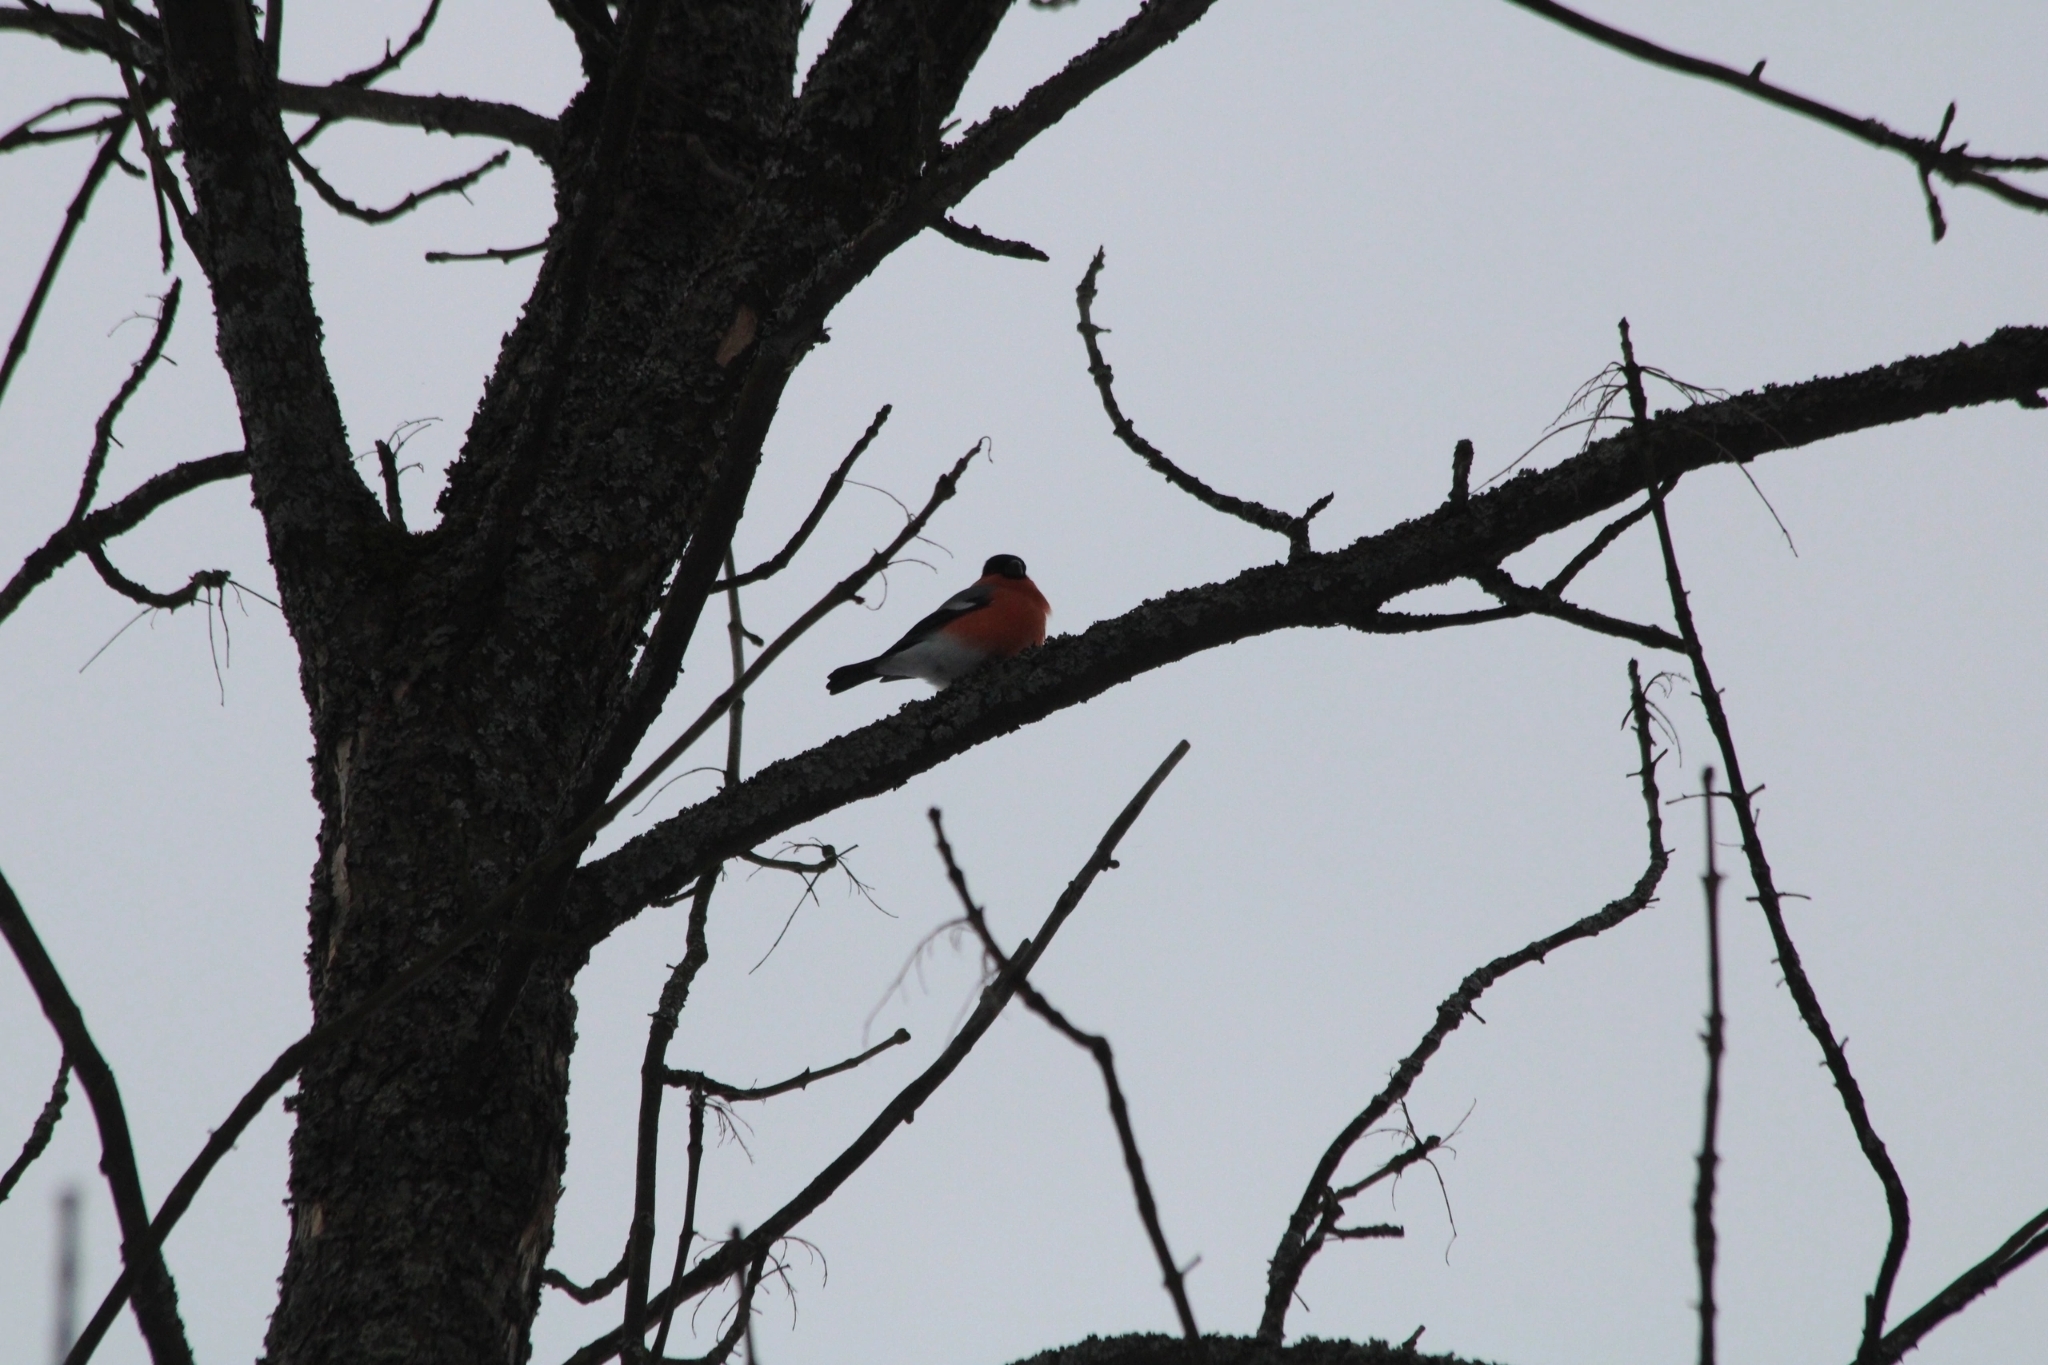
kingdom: Animalia
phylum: Chordata
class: Aves
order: Passeriformes
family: Fringillidae
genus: Pyrrhula
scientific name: Pyrrhula pyrrhula
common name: Eurasian bullfinch
